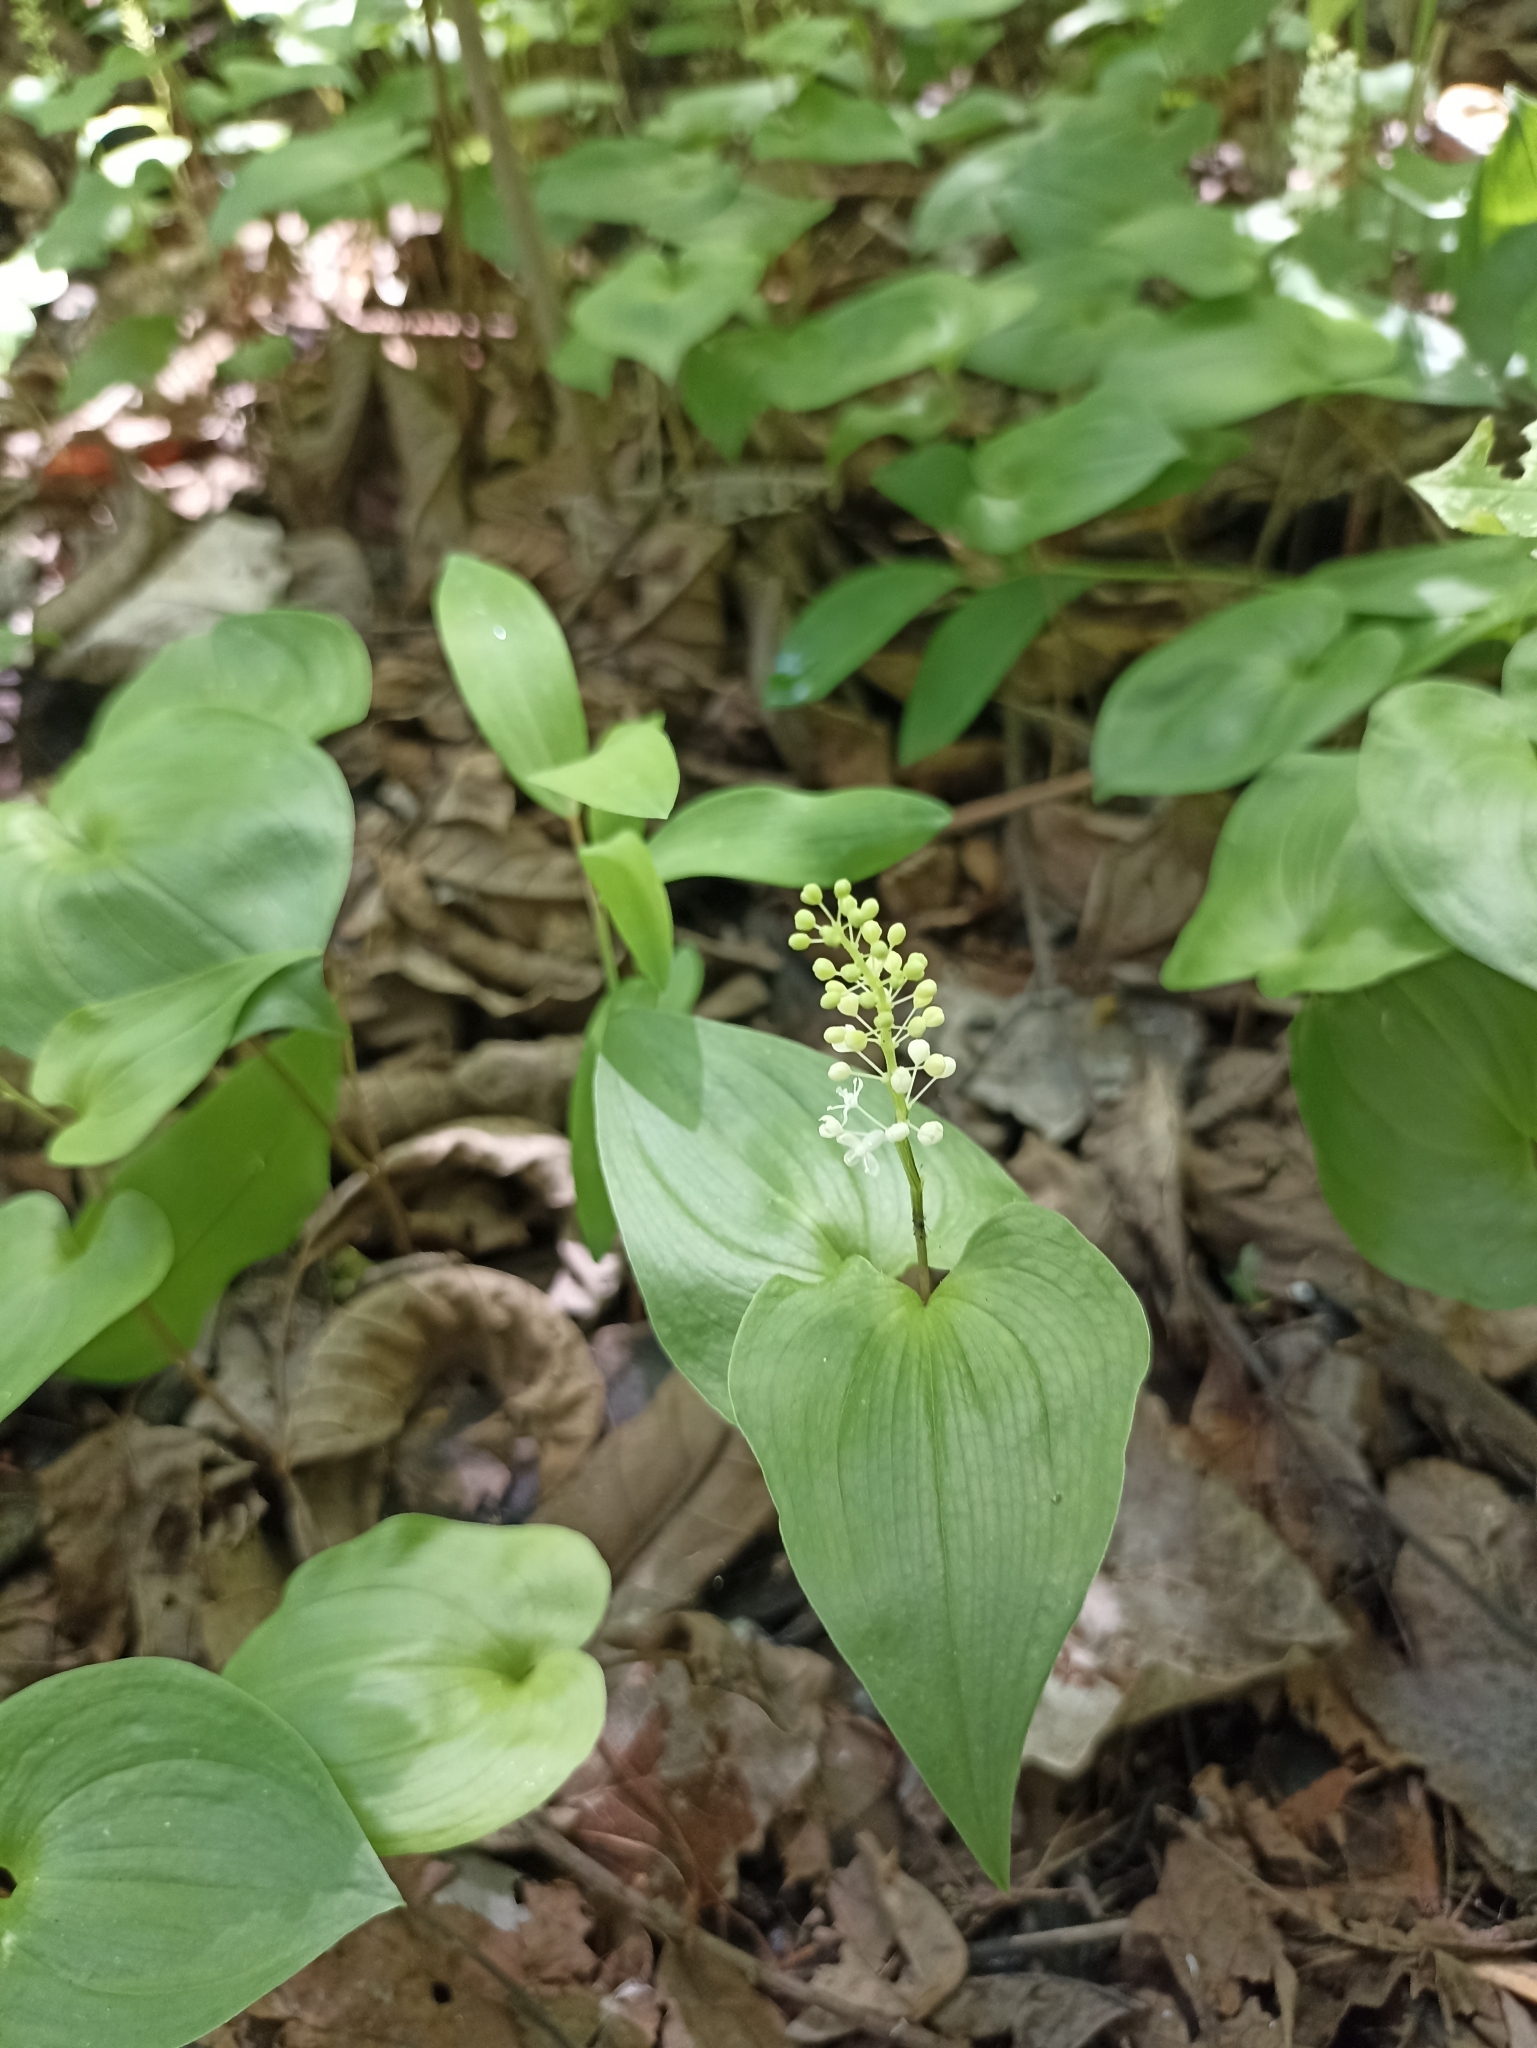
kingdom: Plantae
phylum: Tracheophyta
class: Liliopsida
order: Asparagales
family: Asparagaceae
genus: Maianthemum
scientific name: Maianthemum bifolium
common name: May lily
